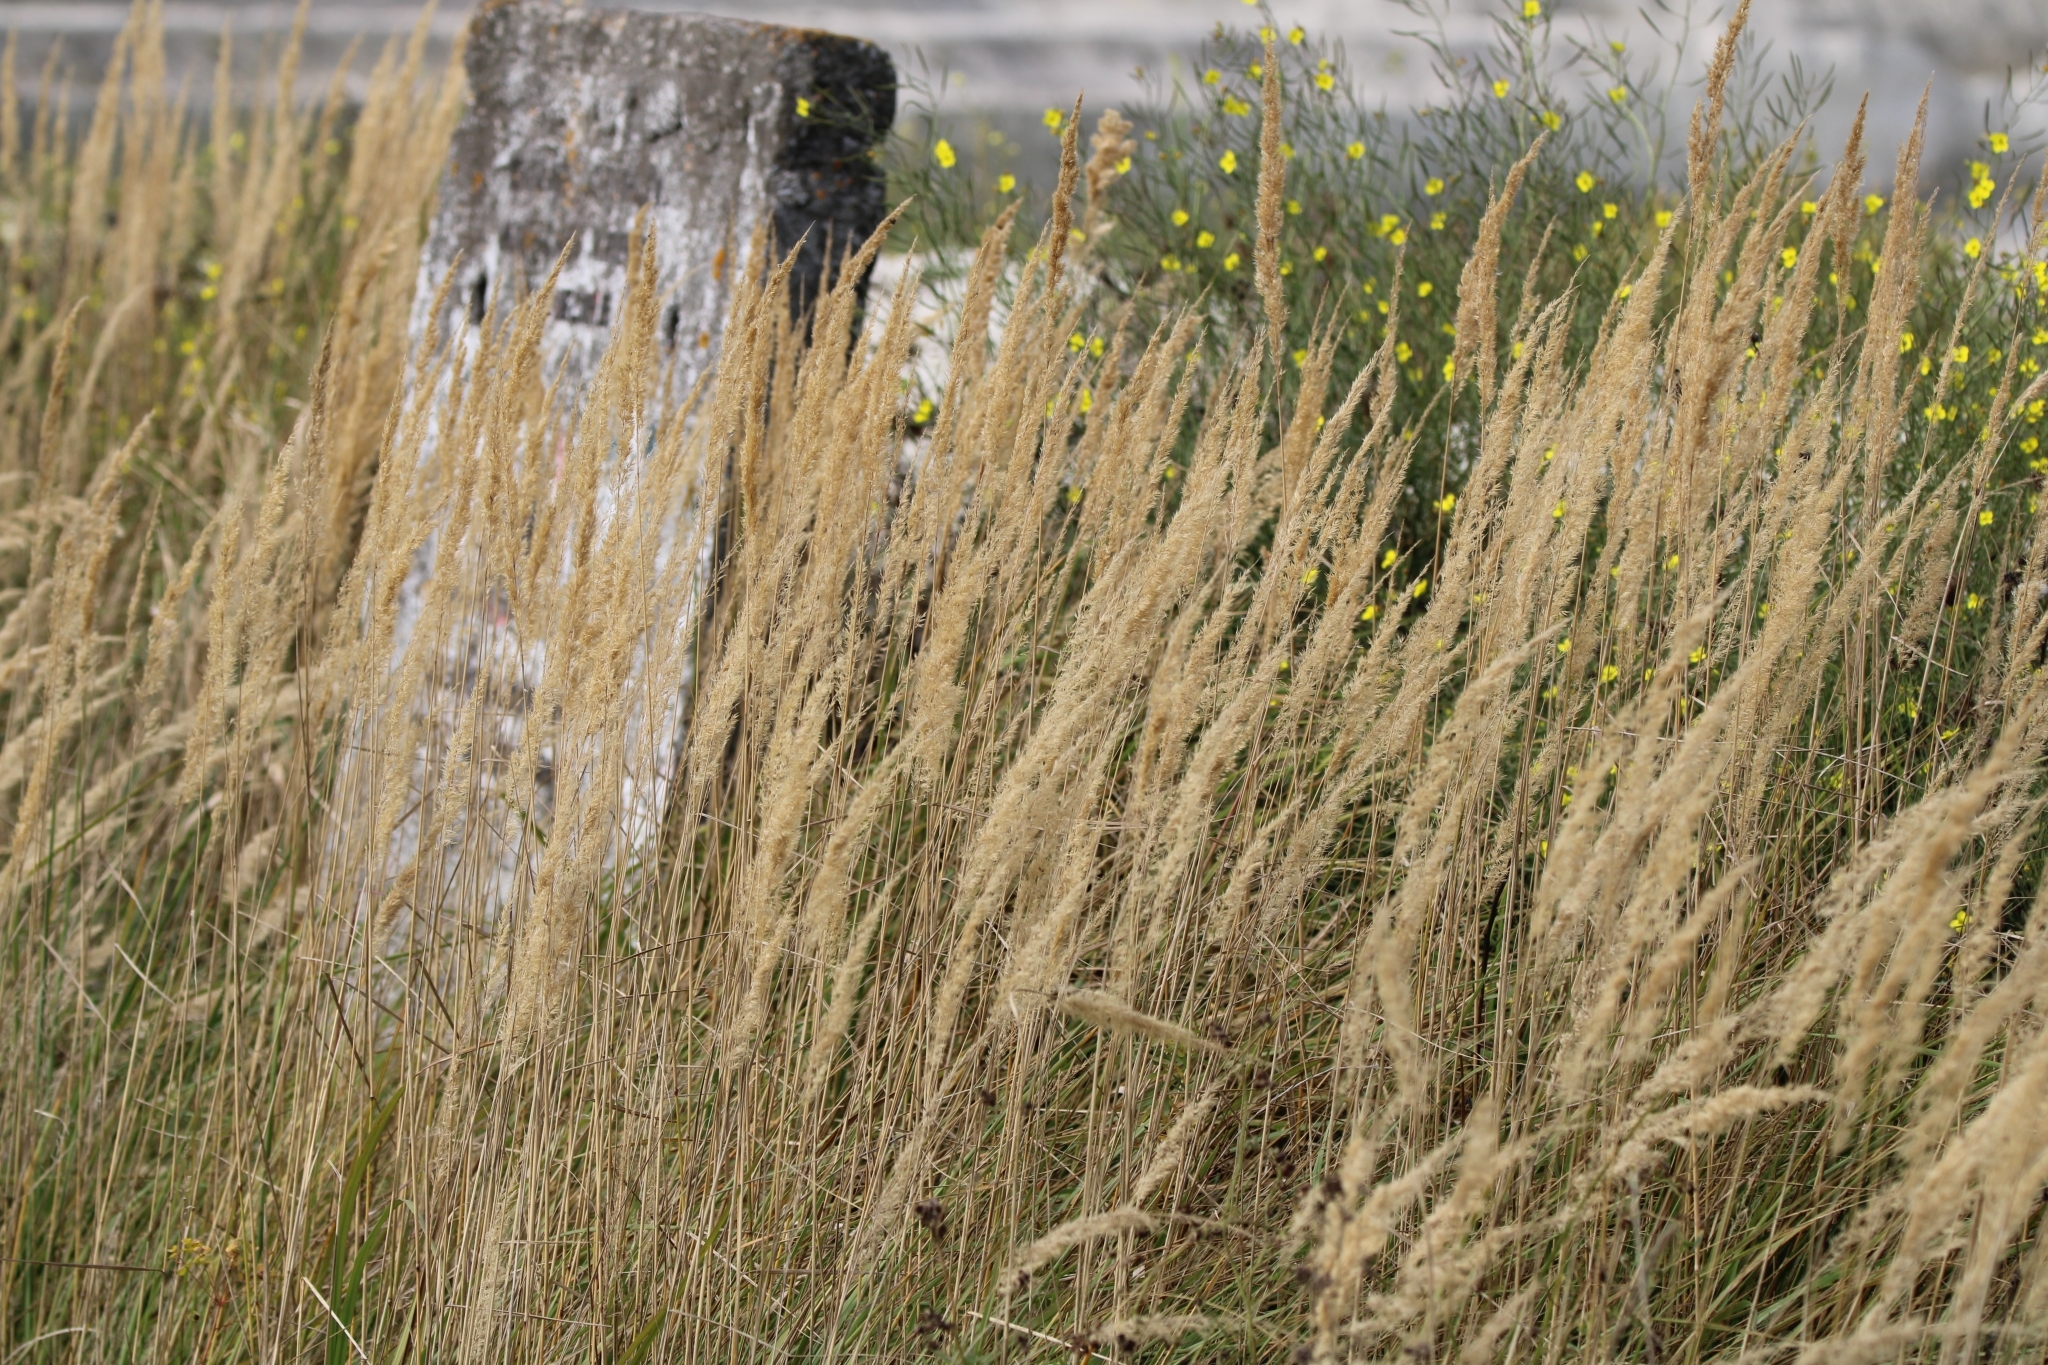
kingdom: Plantae
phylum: Tracheophyta
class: Liliopsida
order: Poales
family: Poaceae
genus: Calamagrostis
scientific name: Calamagrostis epigejos
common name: Wood small-reed
